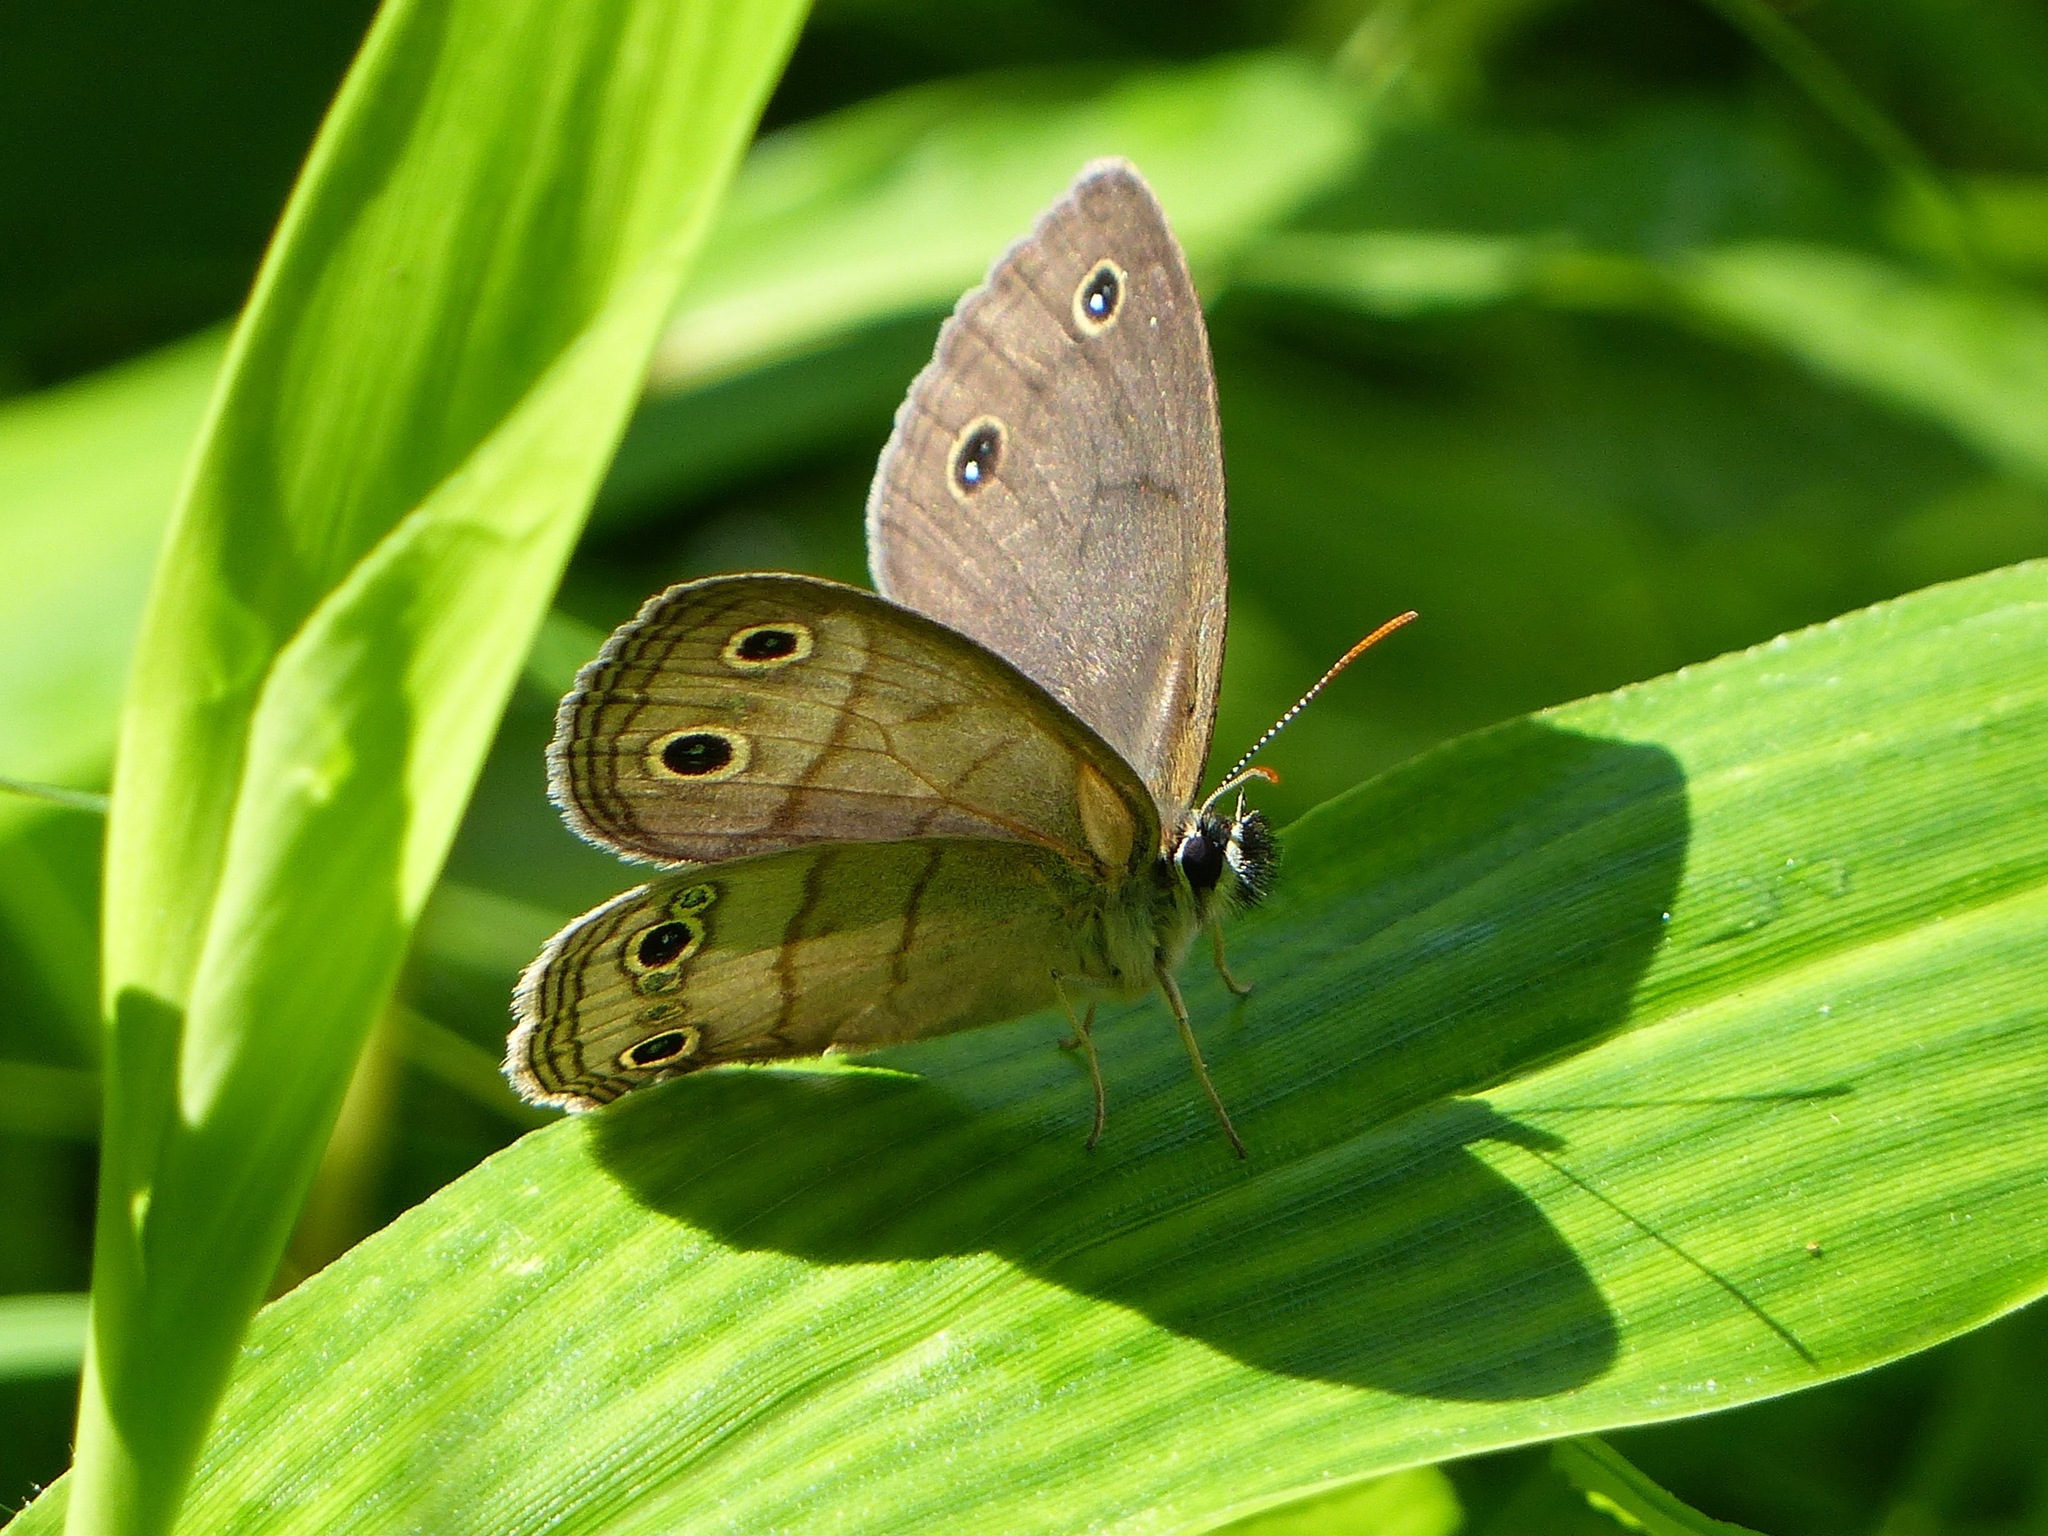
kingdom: Animalia
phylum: Arthropoda
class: Insecta
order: Lepidoptera
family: Nymphalidae
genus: Euptychia
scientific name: Euptychia cymela
